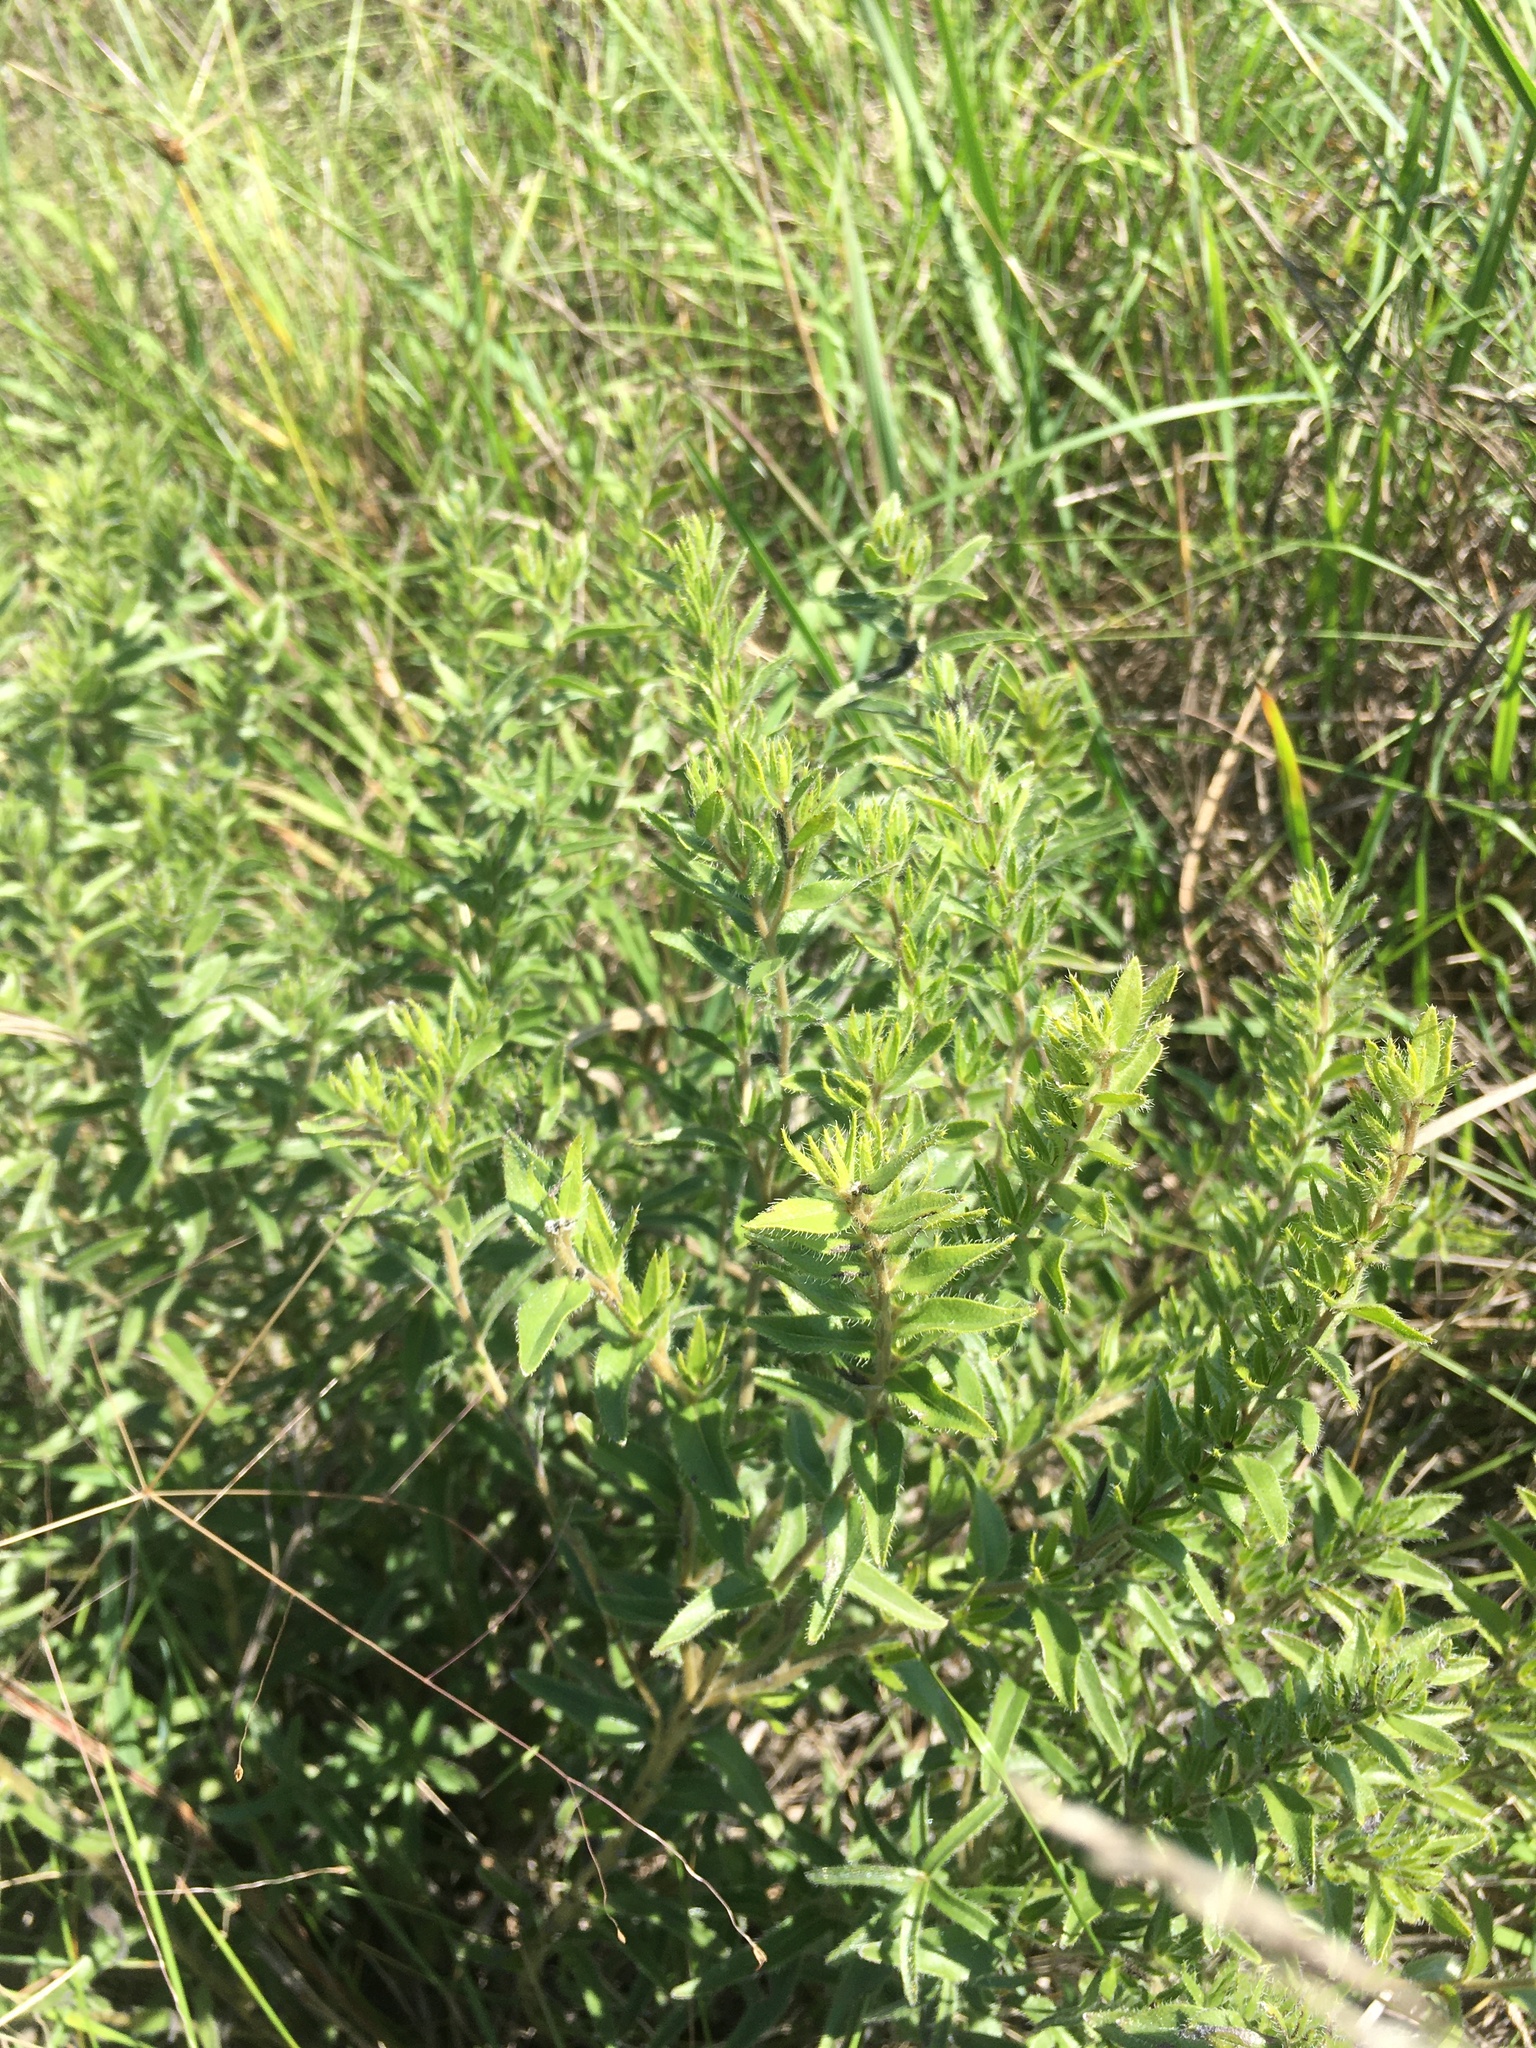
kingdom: Plantae
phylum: Tracheophyta
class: Magnoliopsida
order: Boraginales
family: Boraginaceae
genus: Lithospermum
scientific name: Lithospermum caroliniense
